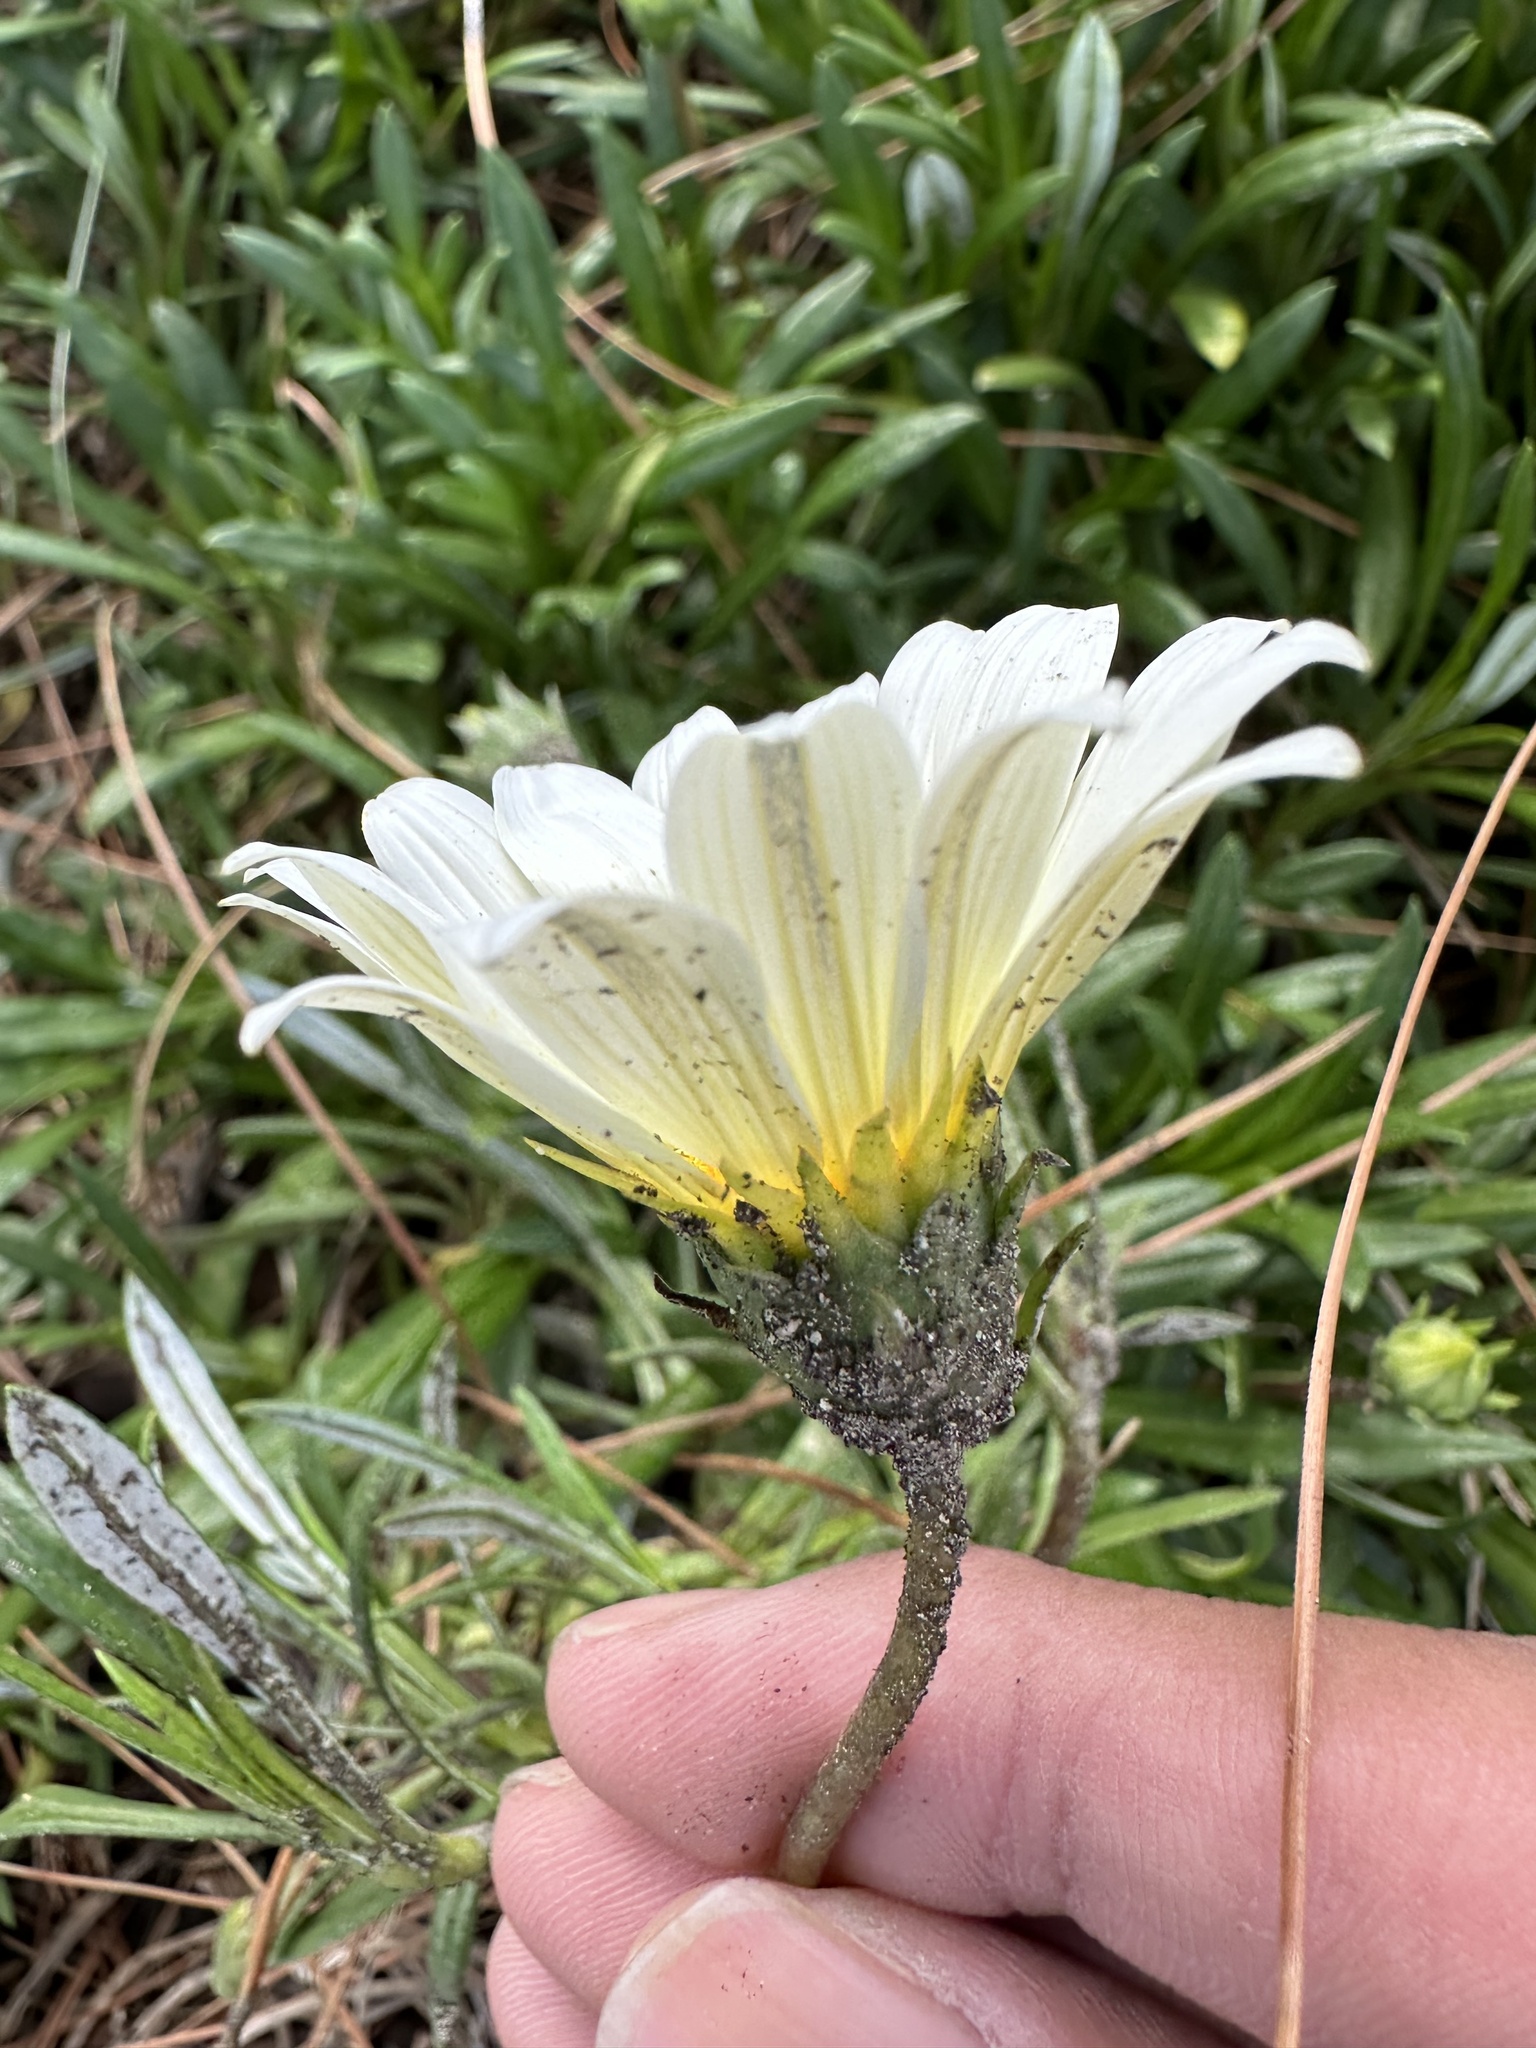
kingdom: Plantae
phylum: Tracheophyta
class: Magnoliopsida
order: Asterales
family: Asteraceae
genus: Gazania
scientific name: Gazania rigens
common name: Treasureflower
